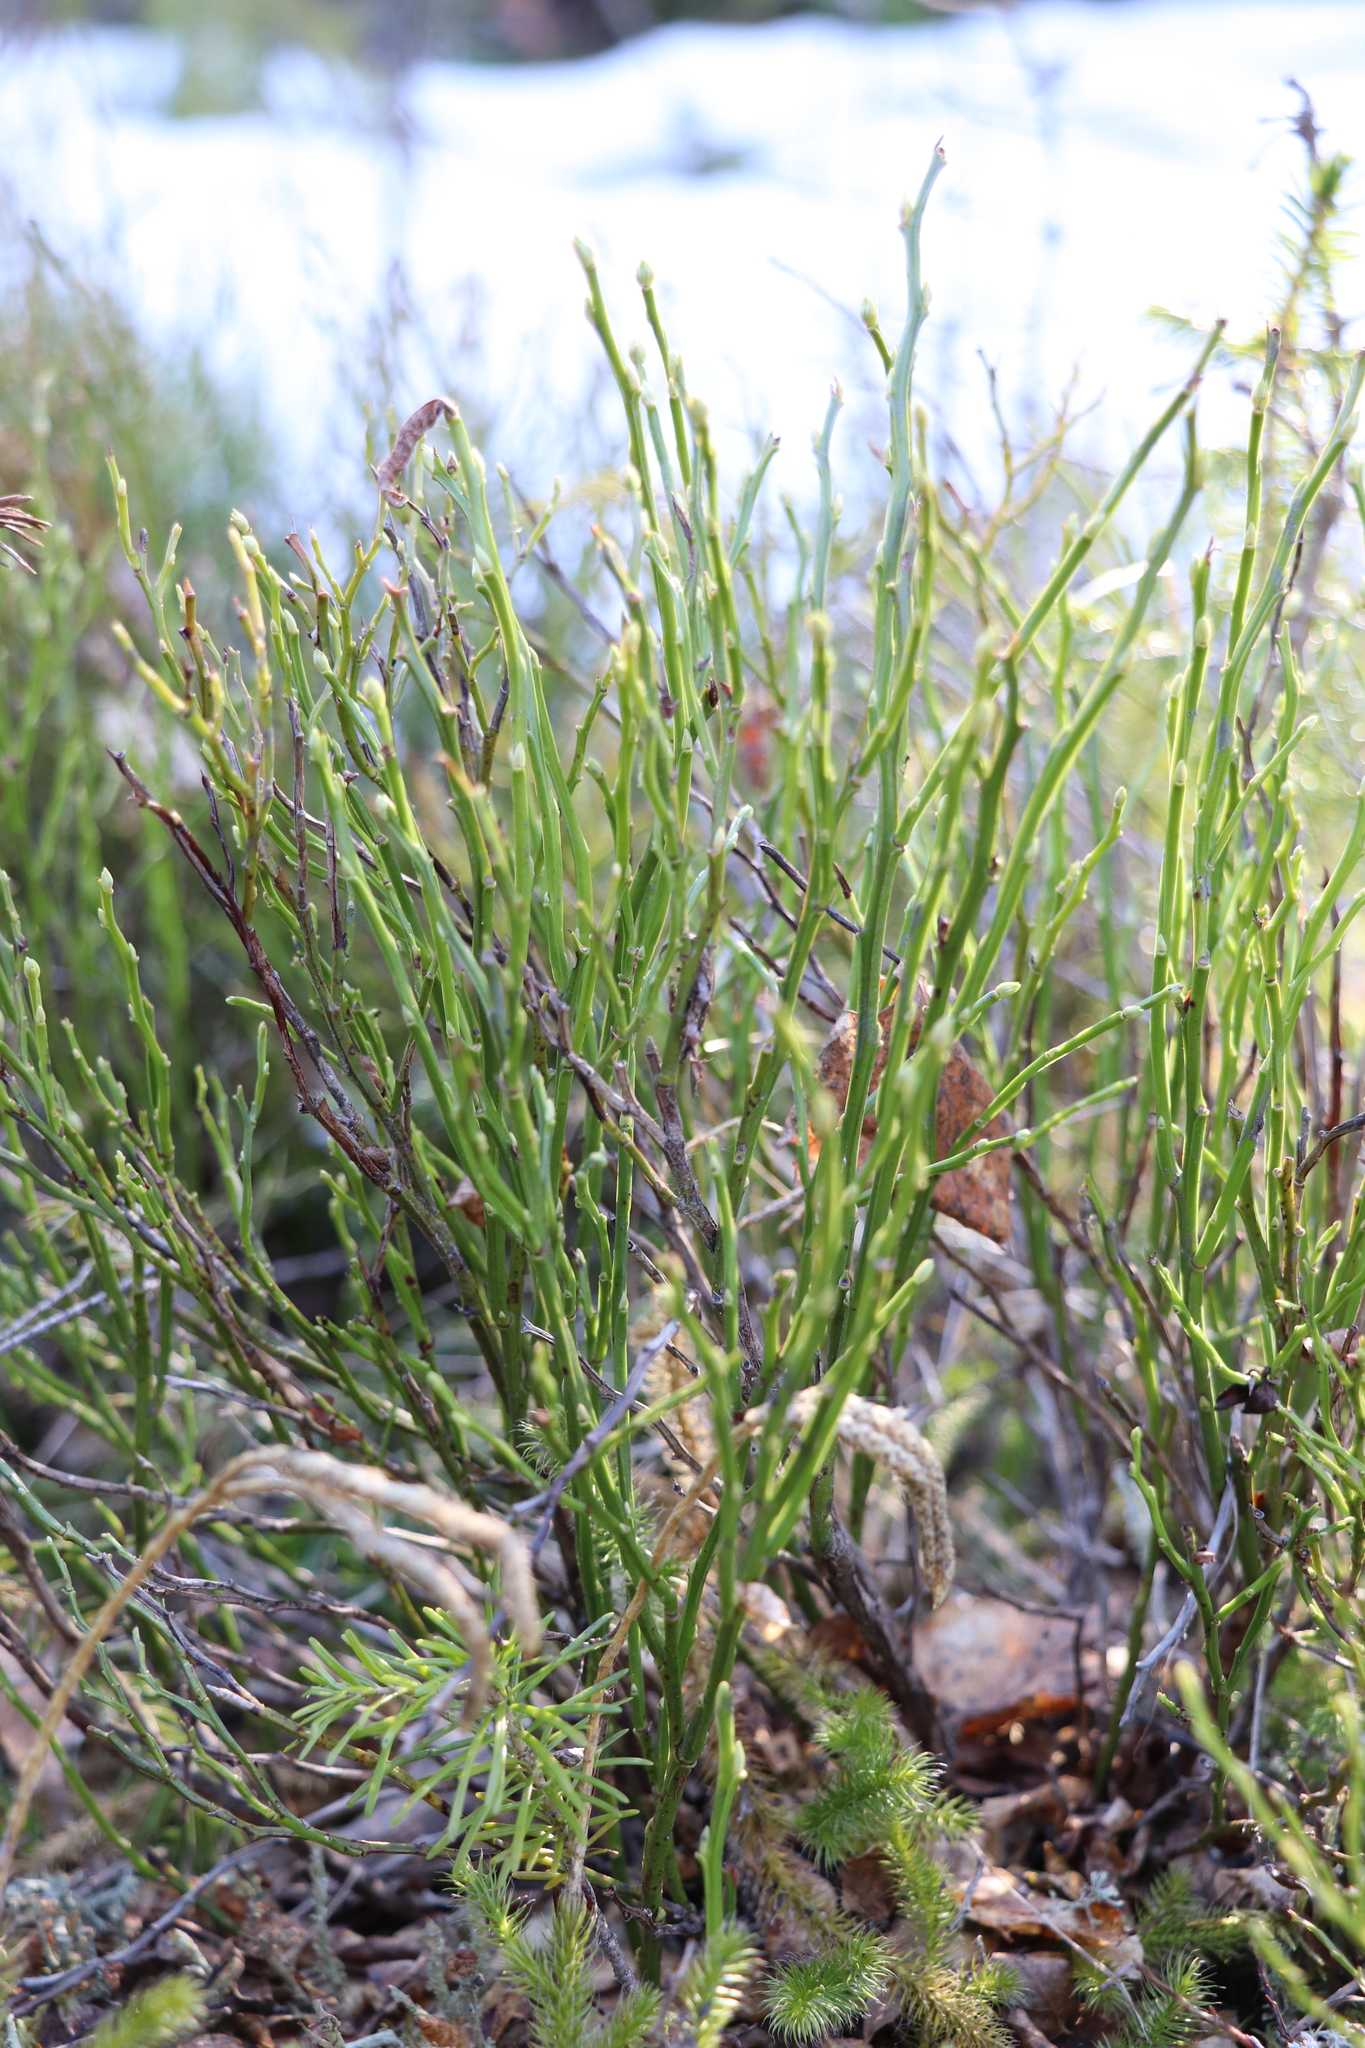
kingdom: Plantae
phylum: Tracheophyta
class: Magnoliopsida
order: Ericales
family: Ericaceae
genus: Vaccinium
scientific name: Vaccinium myrtillus
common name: Bilberry
